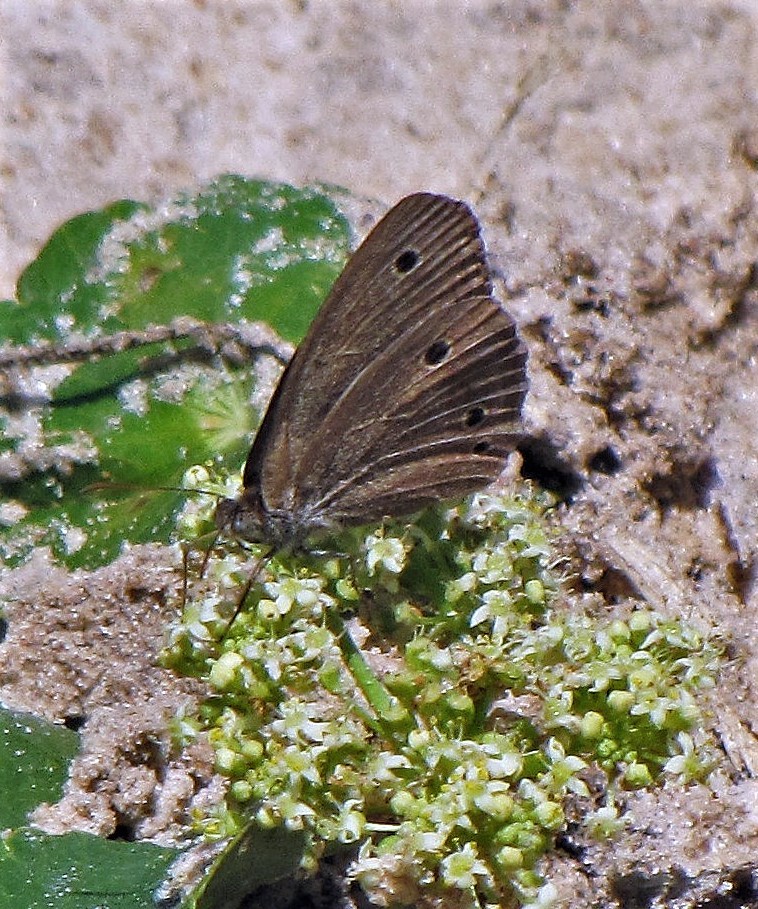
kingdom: Animalia
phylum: Arthropoda
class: Insecta
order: Lepidoptera
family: Nymphalidae
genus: Stegosatyrus
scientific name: Stegosatyrus periphas
